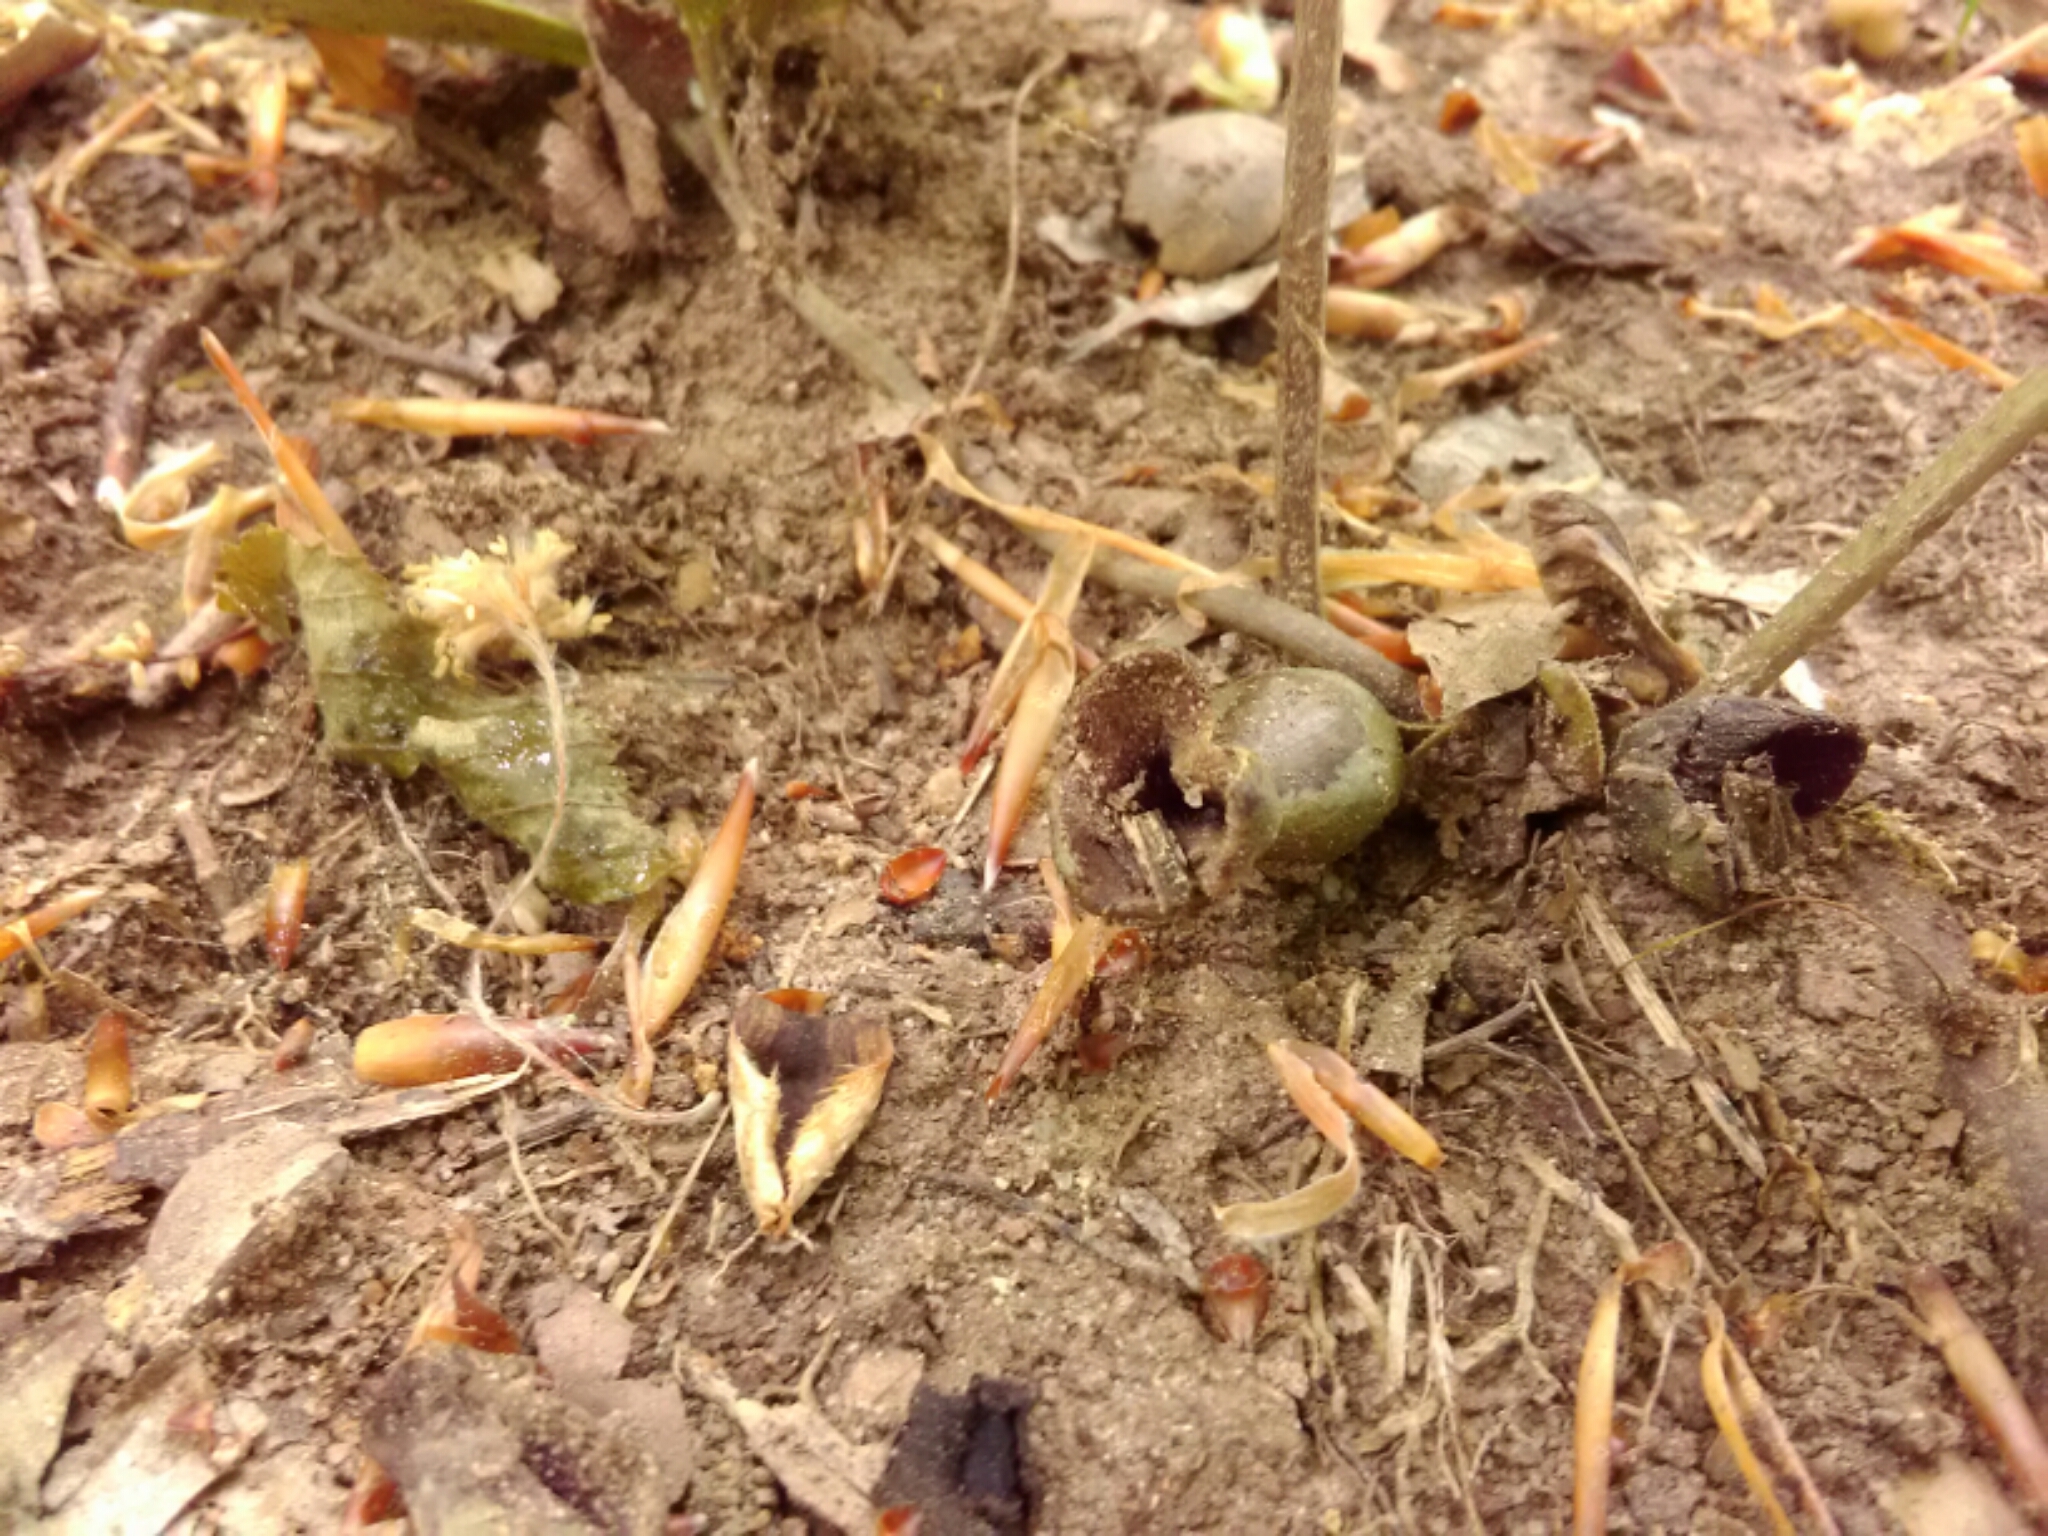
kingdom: Plantae
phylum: Tracheophyta
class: Magnoliopsida
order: Piperales
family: Aristolochiaceae
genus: Hexastylis
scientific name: Hexastylis arifolia
